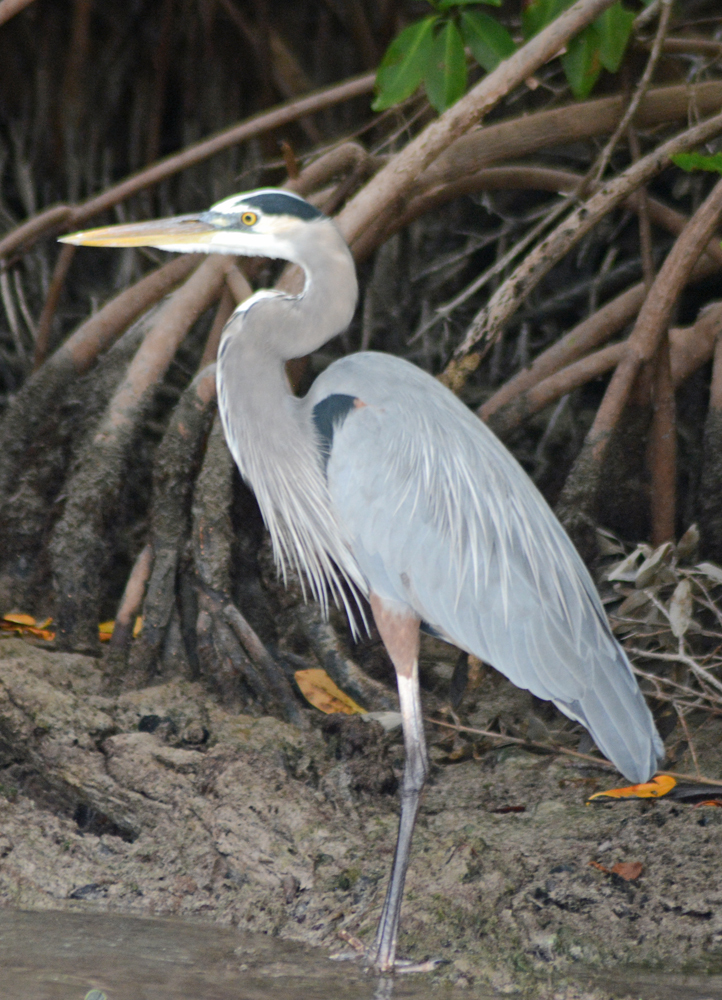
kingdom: Animalia
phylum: Chordata
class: Aves
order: Pelecaniformes
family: Ardeidae
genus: Ardea
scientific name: Ardea herodias
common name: Great blue heron
